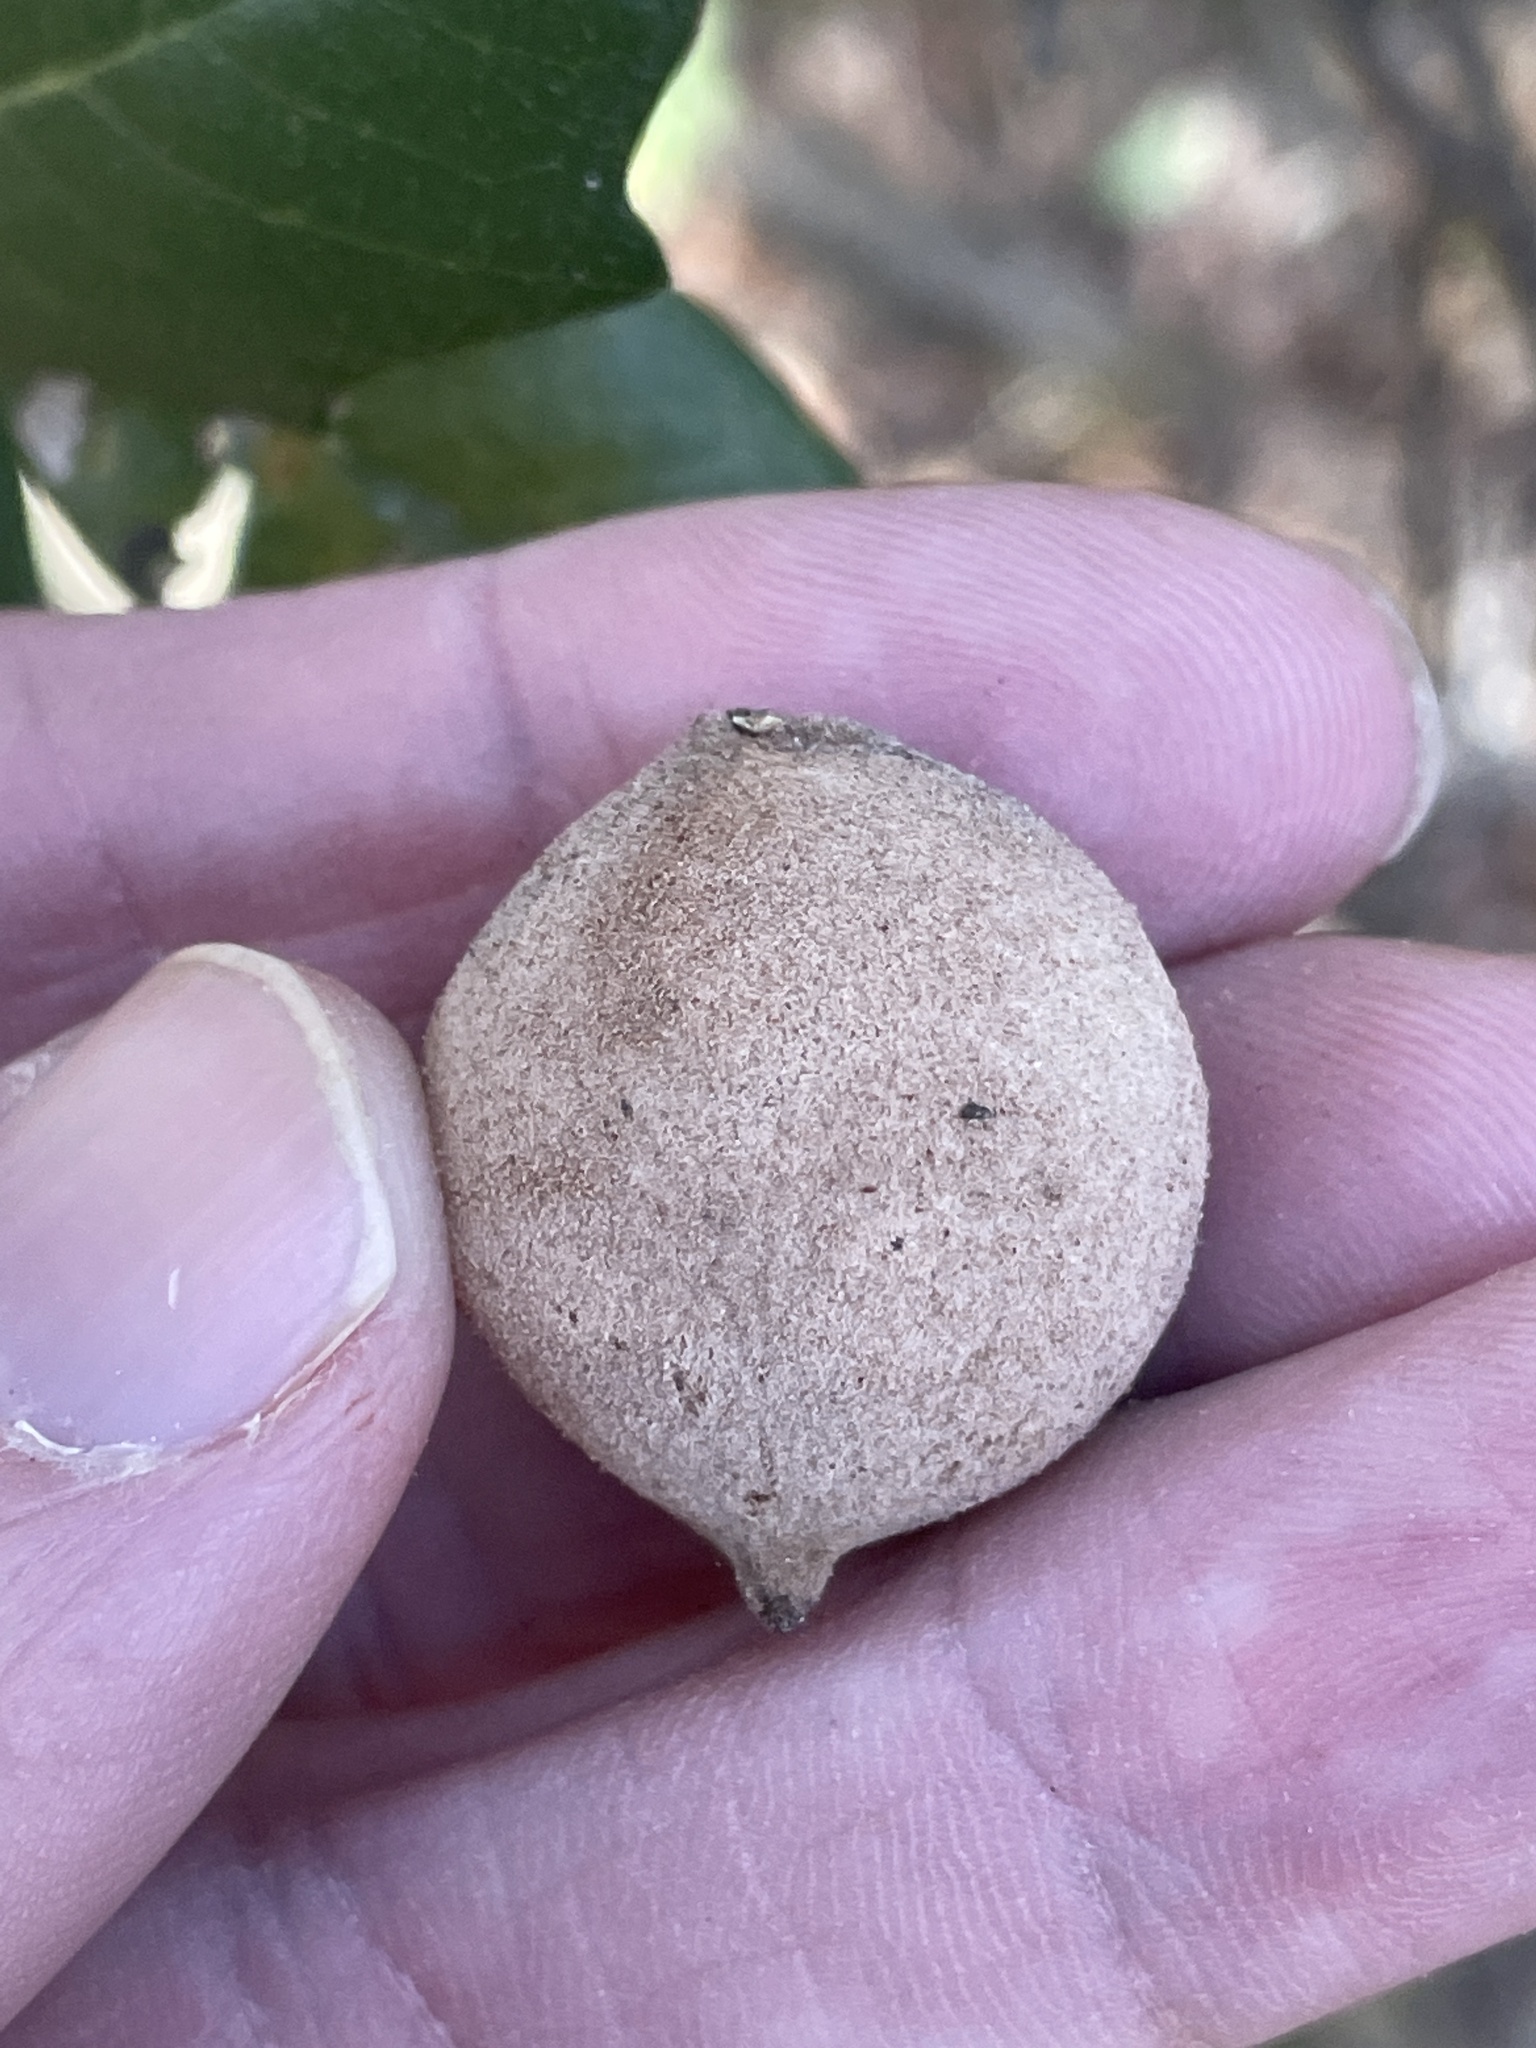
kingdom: Animalia
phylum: Arthropoda
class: Insecta
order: Hymenoptera
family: Cynipidae
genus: Disholcaspis
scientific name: Disholcaspis
